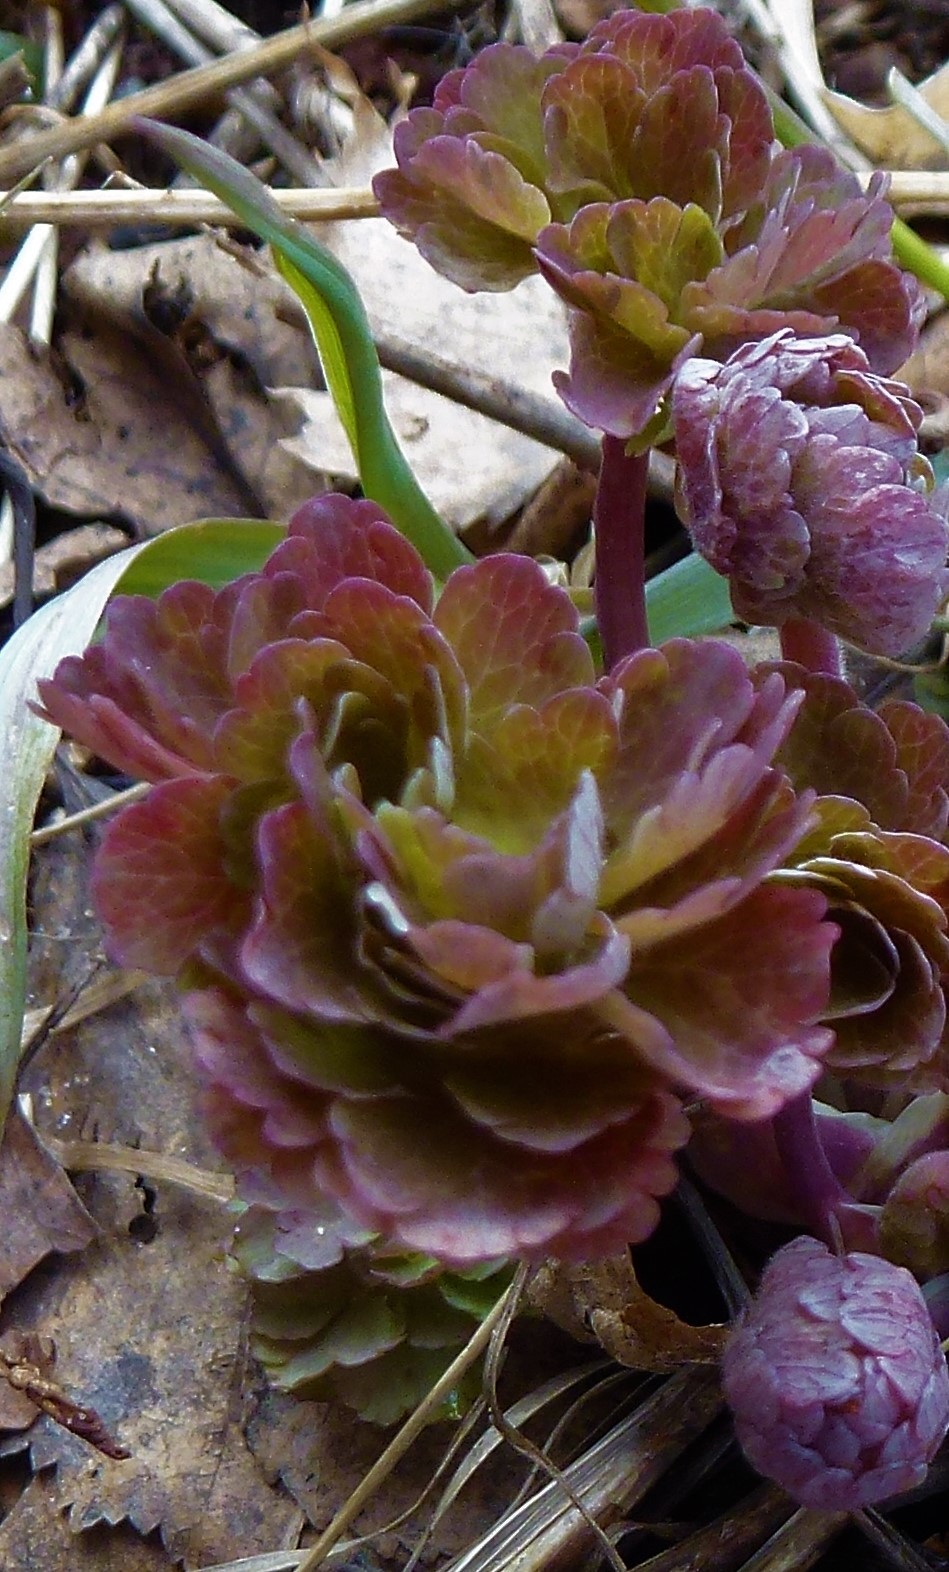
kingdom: Plantae
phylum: Tracheophyta
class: Magnoliopsida
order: Ranunculales
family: Ranunculaceae
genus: Aquilegia
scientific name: Aquilegia vulgaris
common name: Columbine
